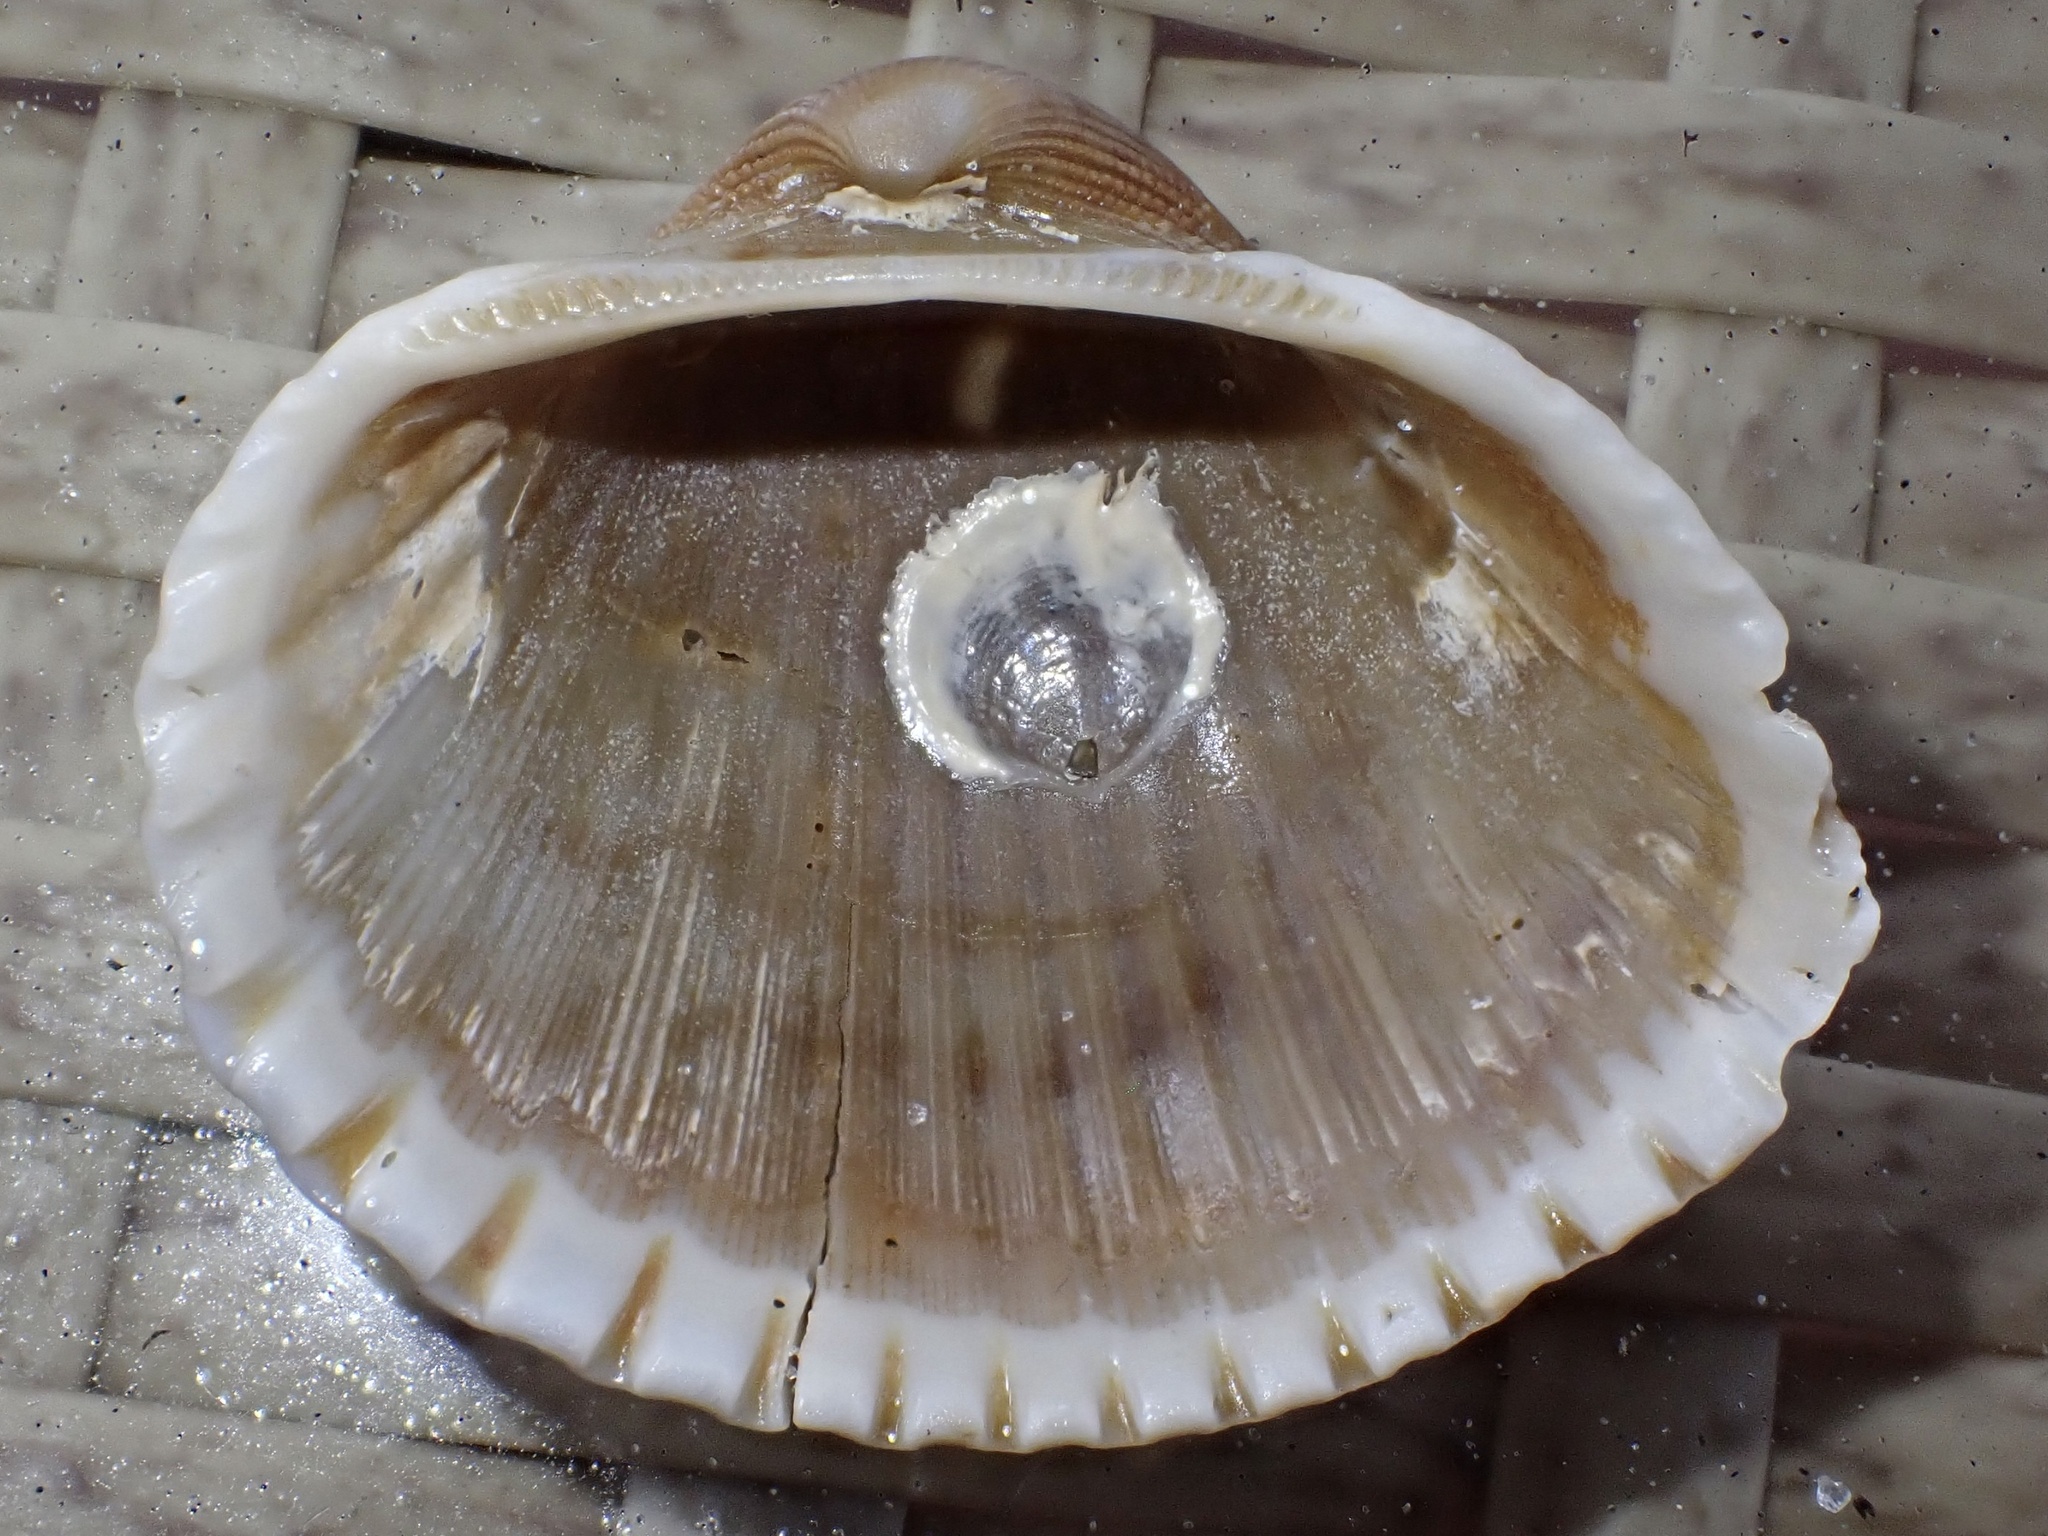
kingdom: Animalia
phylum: Mollusca
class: Bivalvia
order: Arcida
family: Arcidae
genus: Anadara
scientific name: Anadara brasiliana
